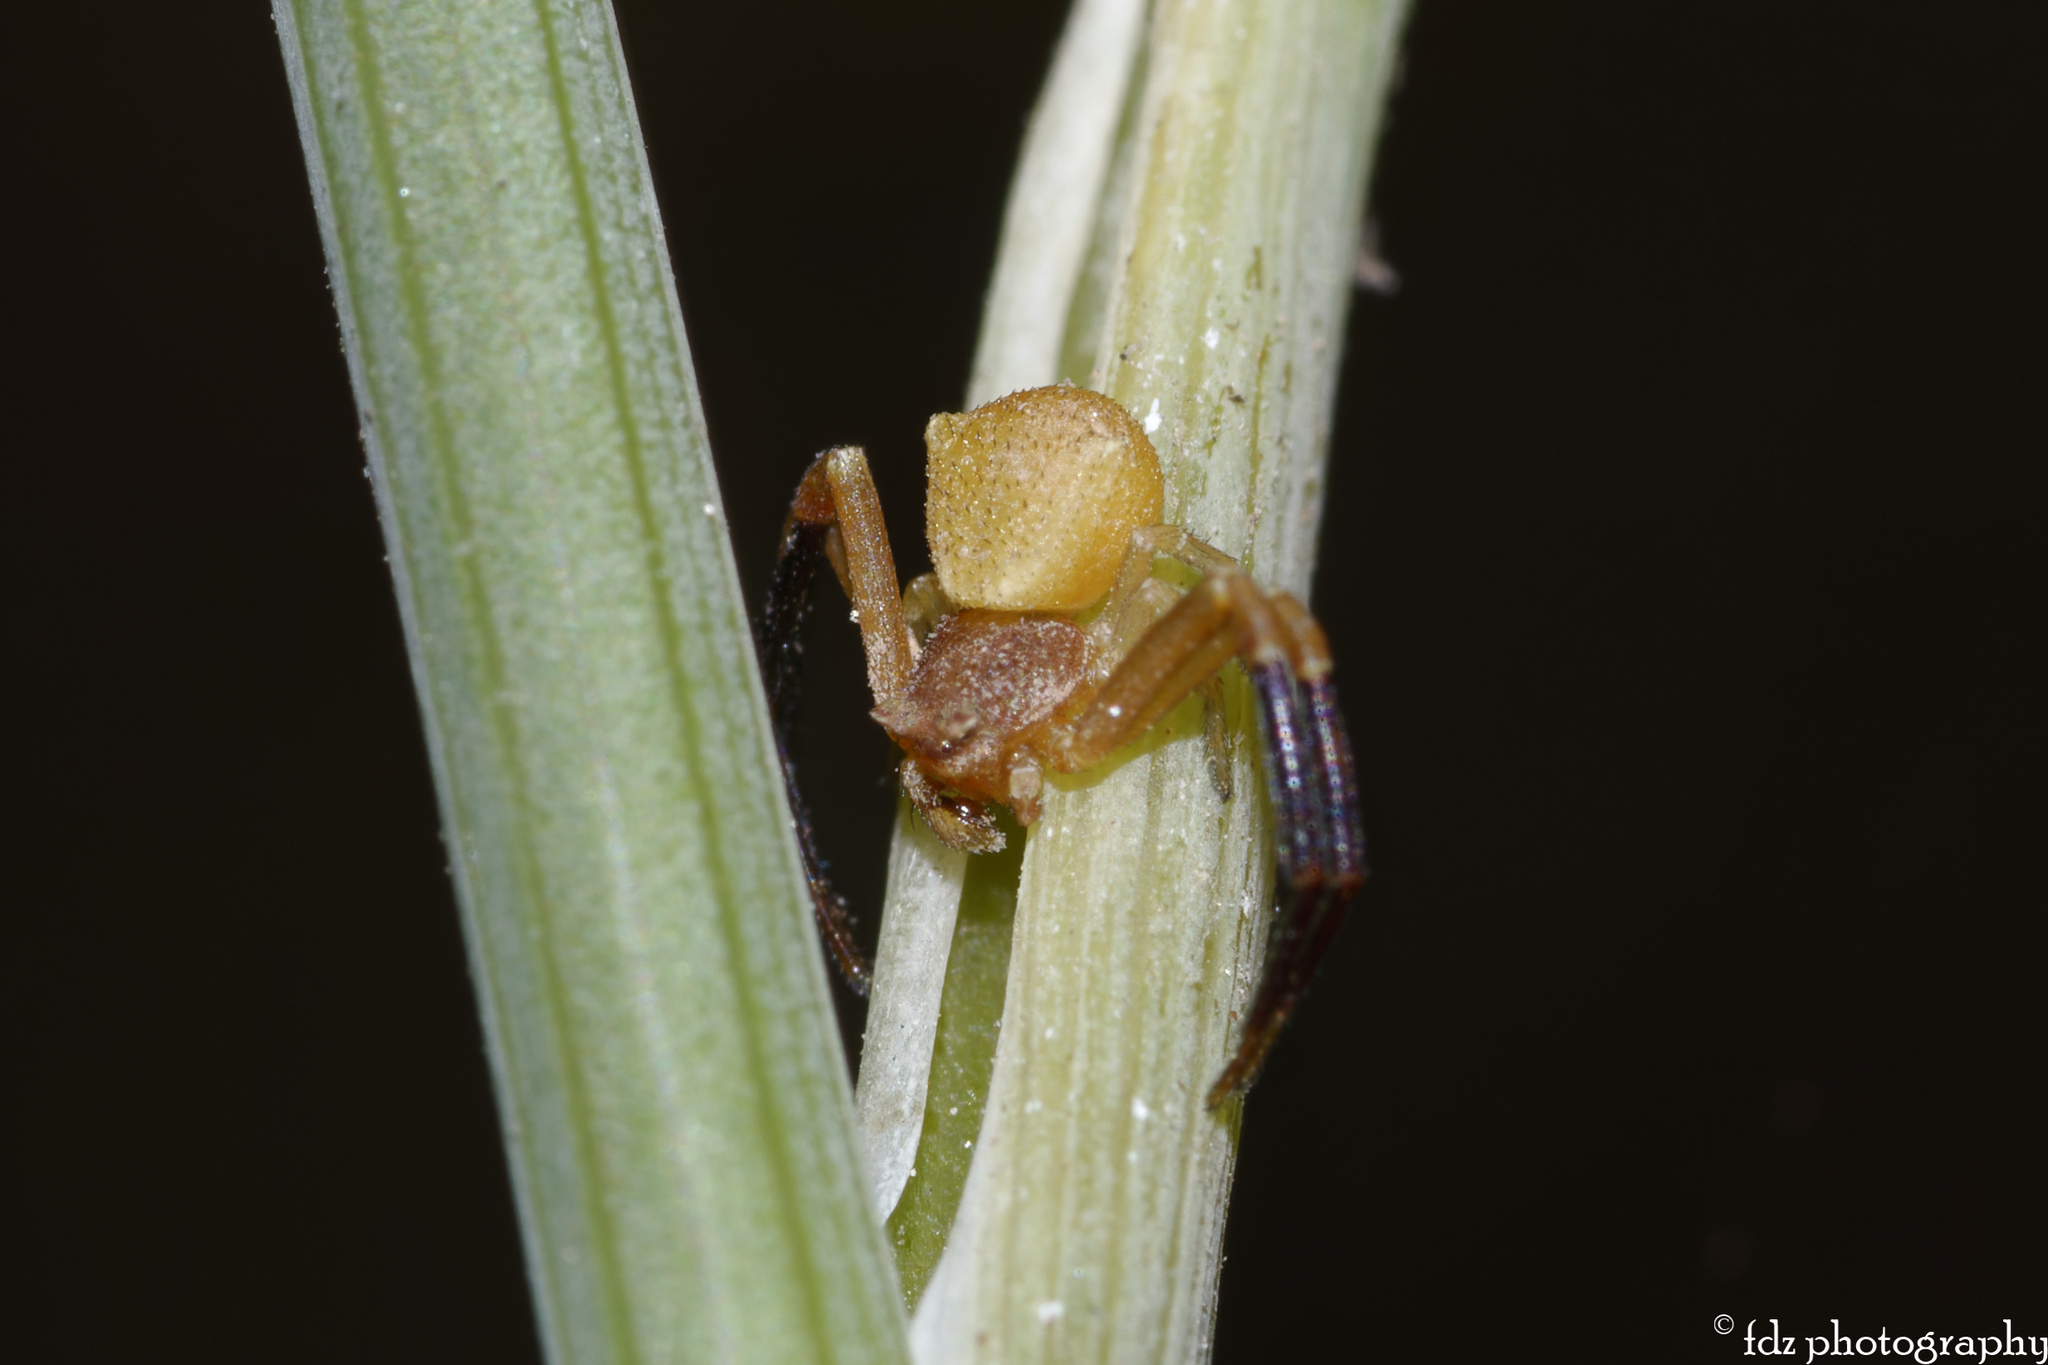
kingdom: Animalia
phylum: Arthropoda
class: Arachnida
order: Araneae
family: Thomisidae
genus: Thomisus
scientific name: Thomisus onustus
